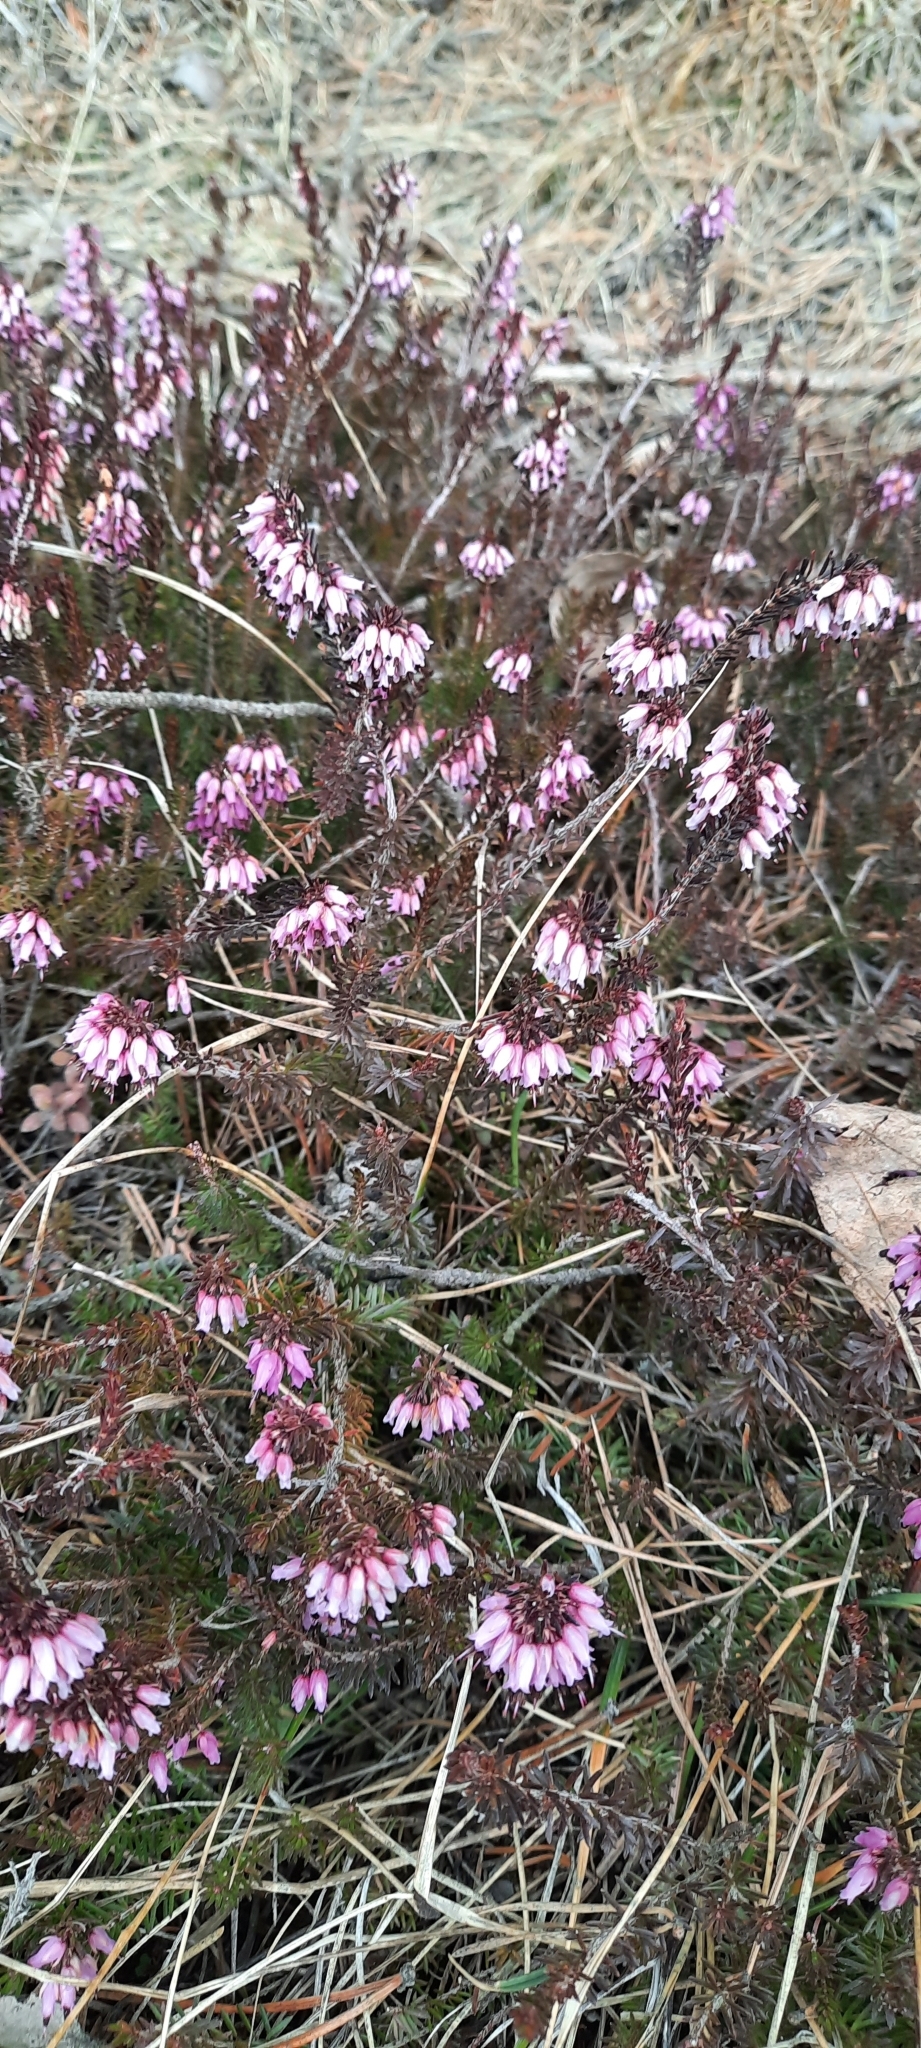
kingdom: Plantae
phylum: Tracheophyta
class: Magnoliopsida
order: Ericales
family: Ericaceae
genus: Erica
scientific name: Erica carnea
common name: Winter heath
